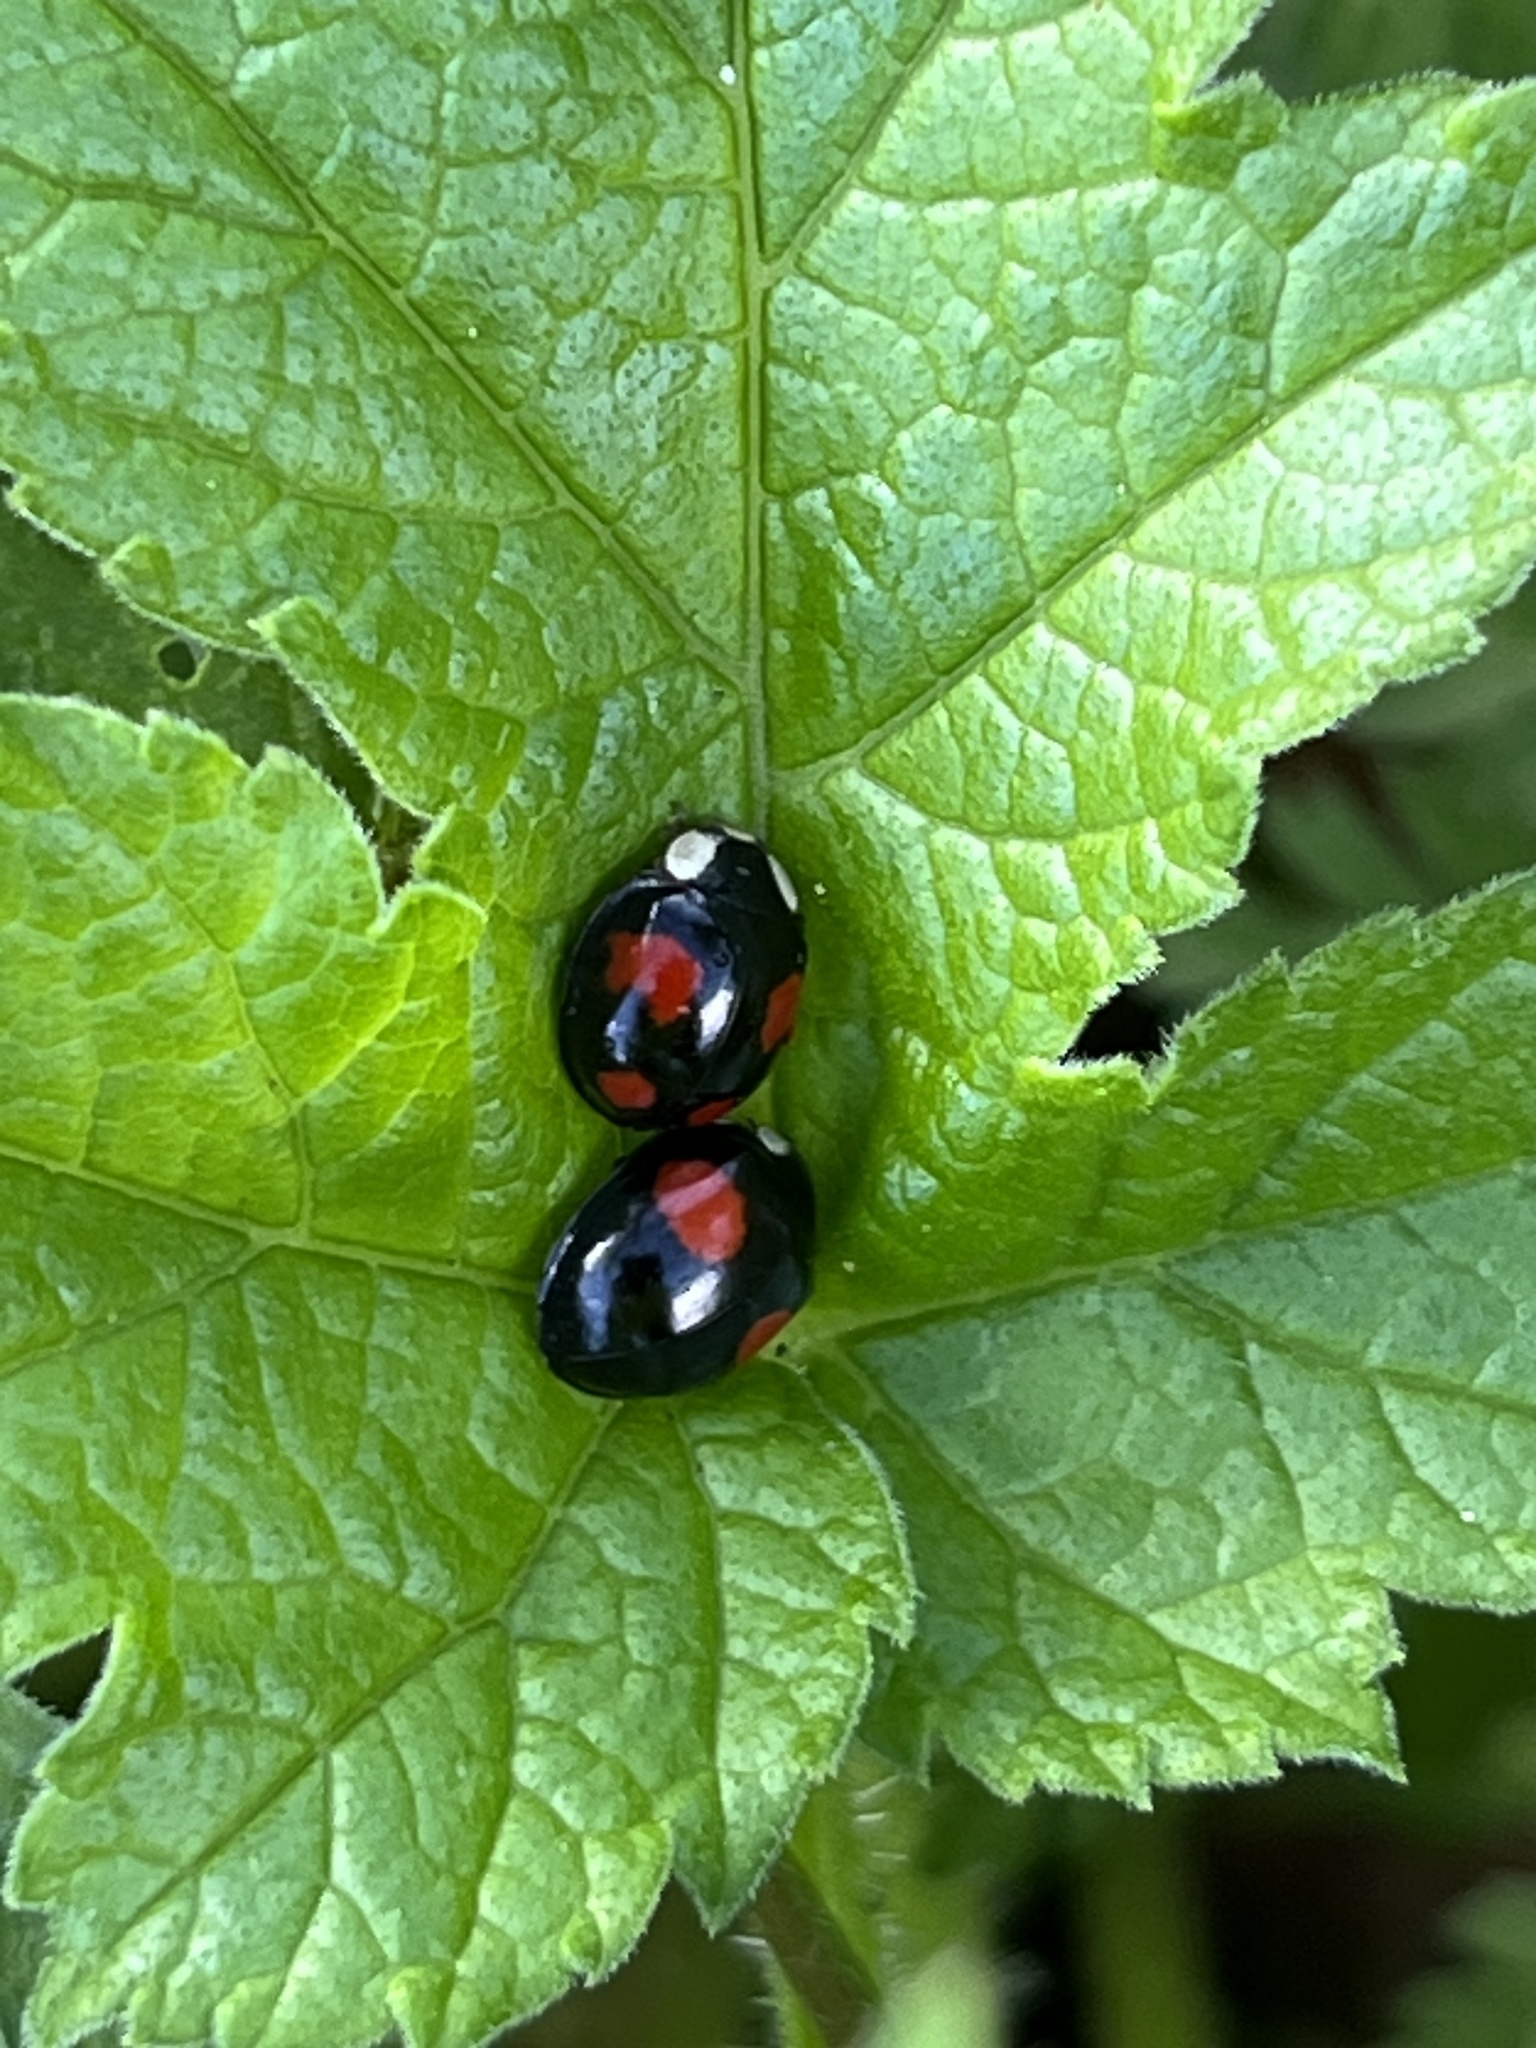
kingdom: Animalia
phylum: Arthropoda
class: Insecta
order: Coleoptera
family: Coccinellidae
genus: Harmonia
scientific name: Harmonia axyridis
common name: Harlequin ladybird
